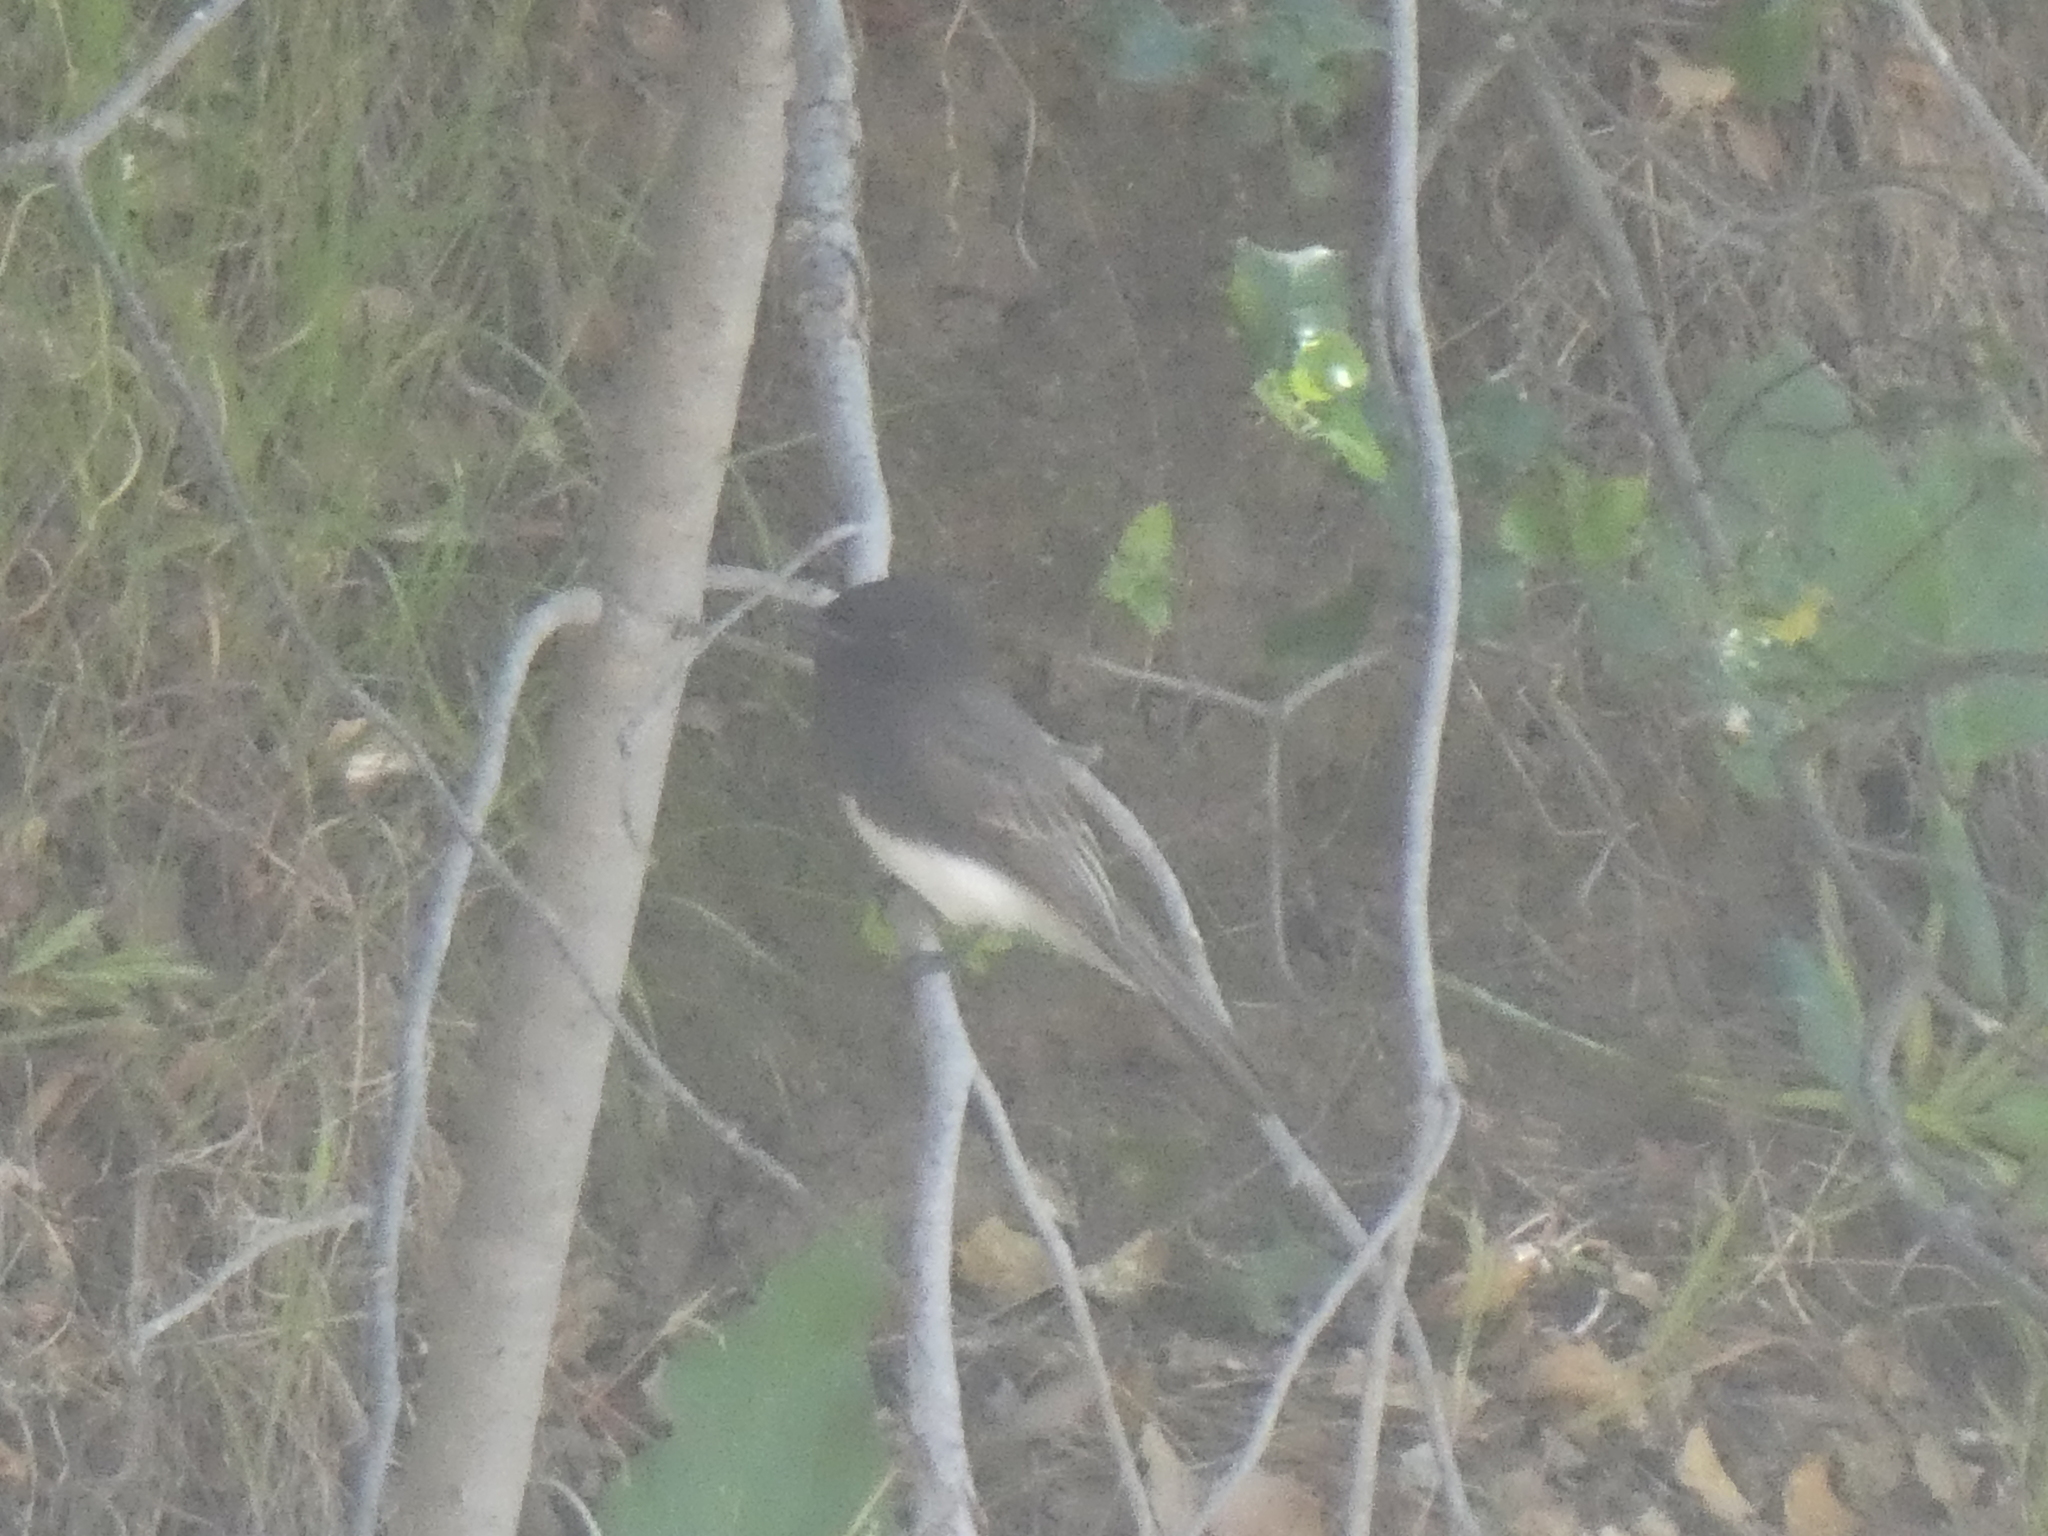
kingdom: Animalia
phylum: Chordata
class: Aves
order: Passeriformes
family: Tyrannidae
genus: Sayornis
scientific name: Sayornis nigricans
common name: Black phoebe
